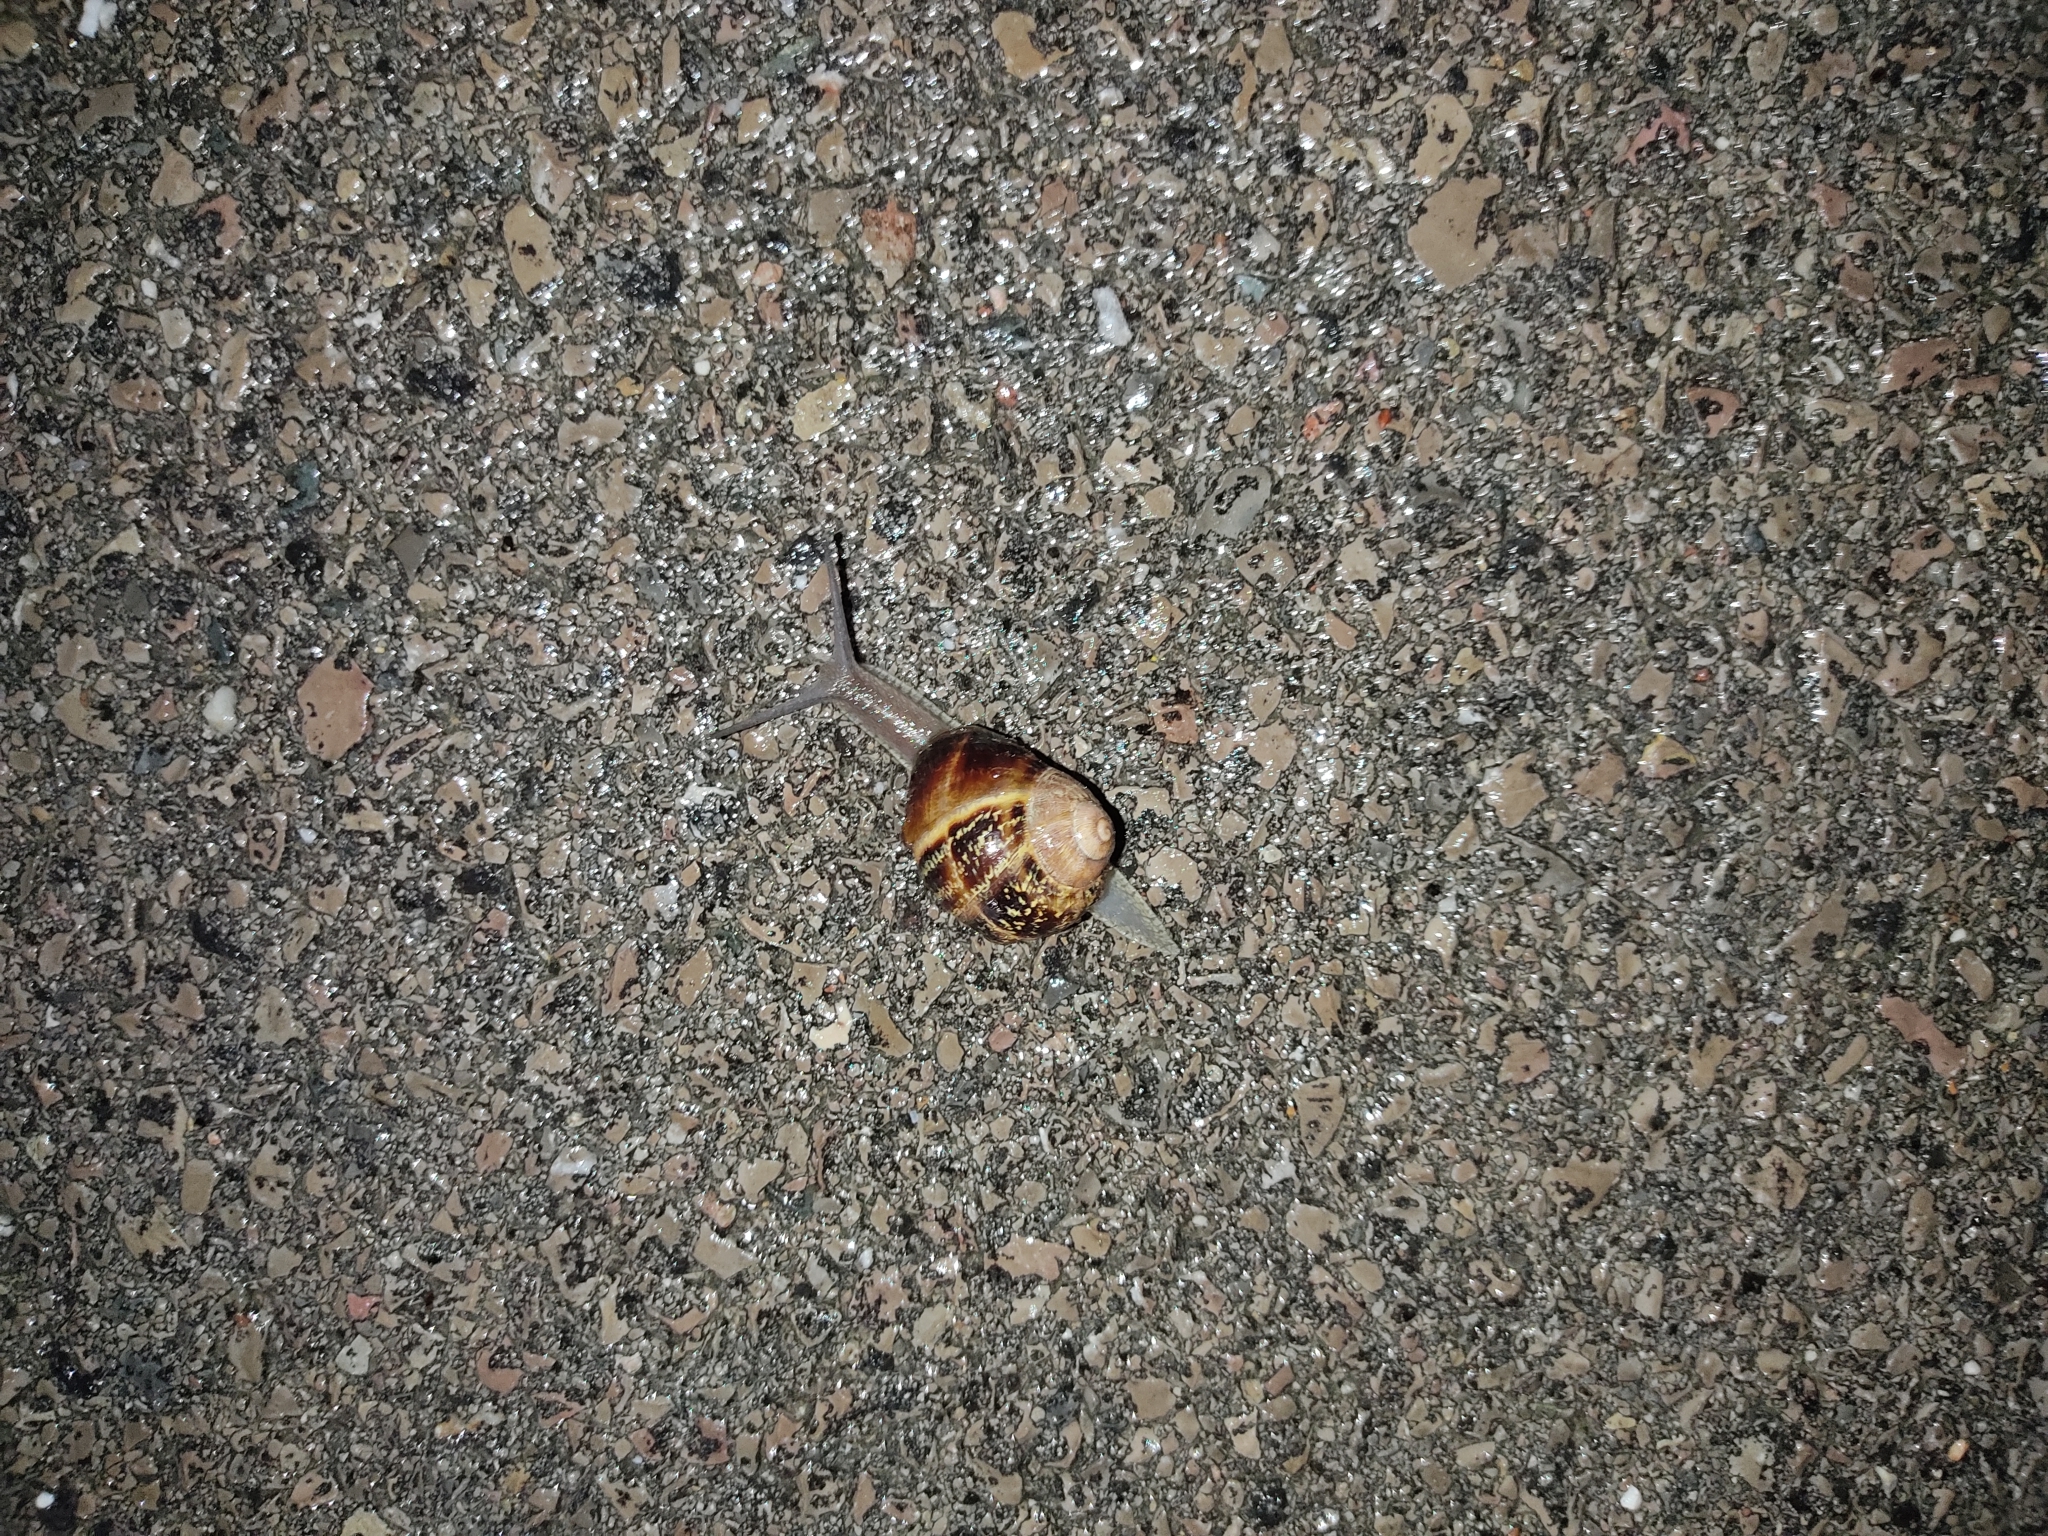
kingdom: Animalia
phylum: Mollusca
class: Gastropoda
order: Stylommatophora
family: Helicidae
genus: Cornu
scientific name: Cornu aspersum
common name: Brown garden snail
